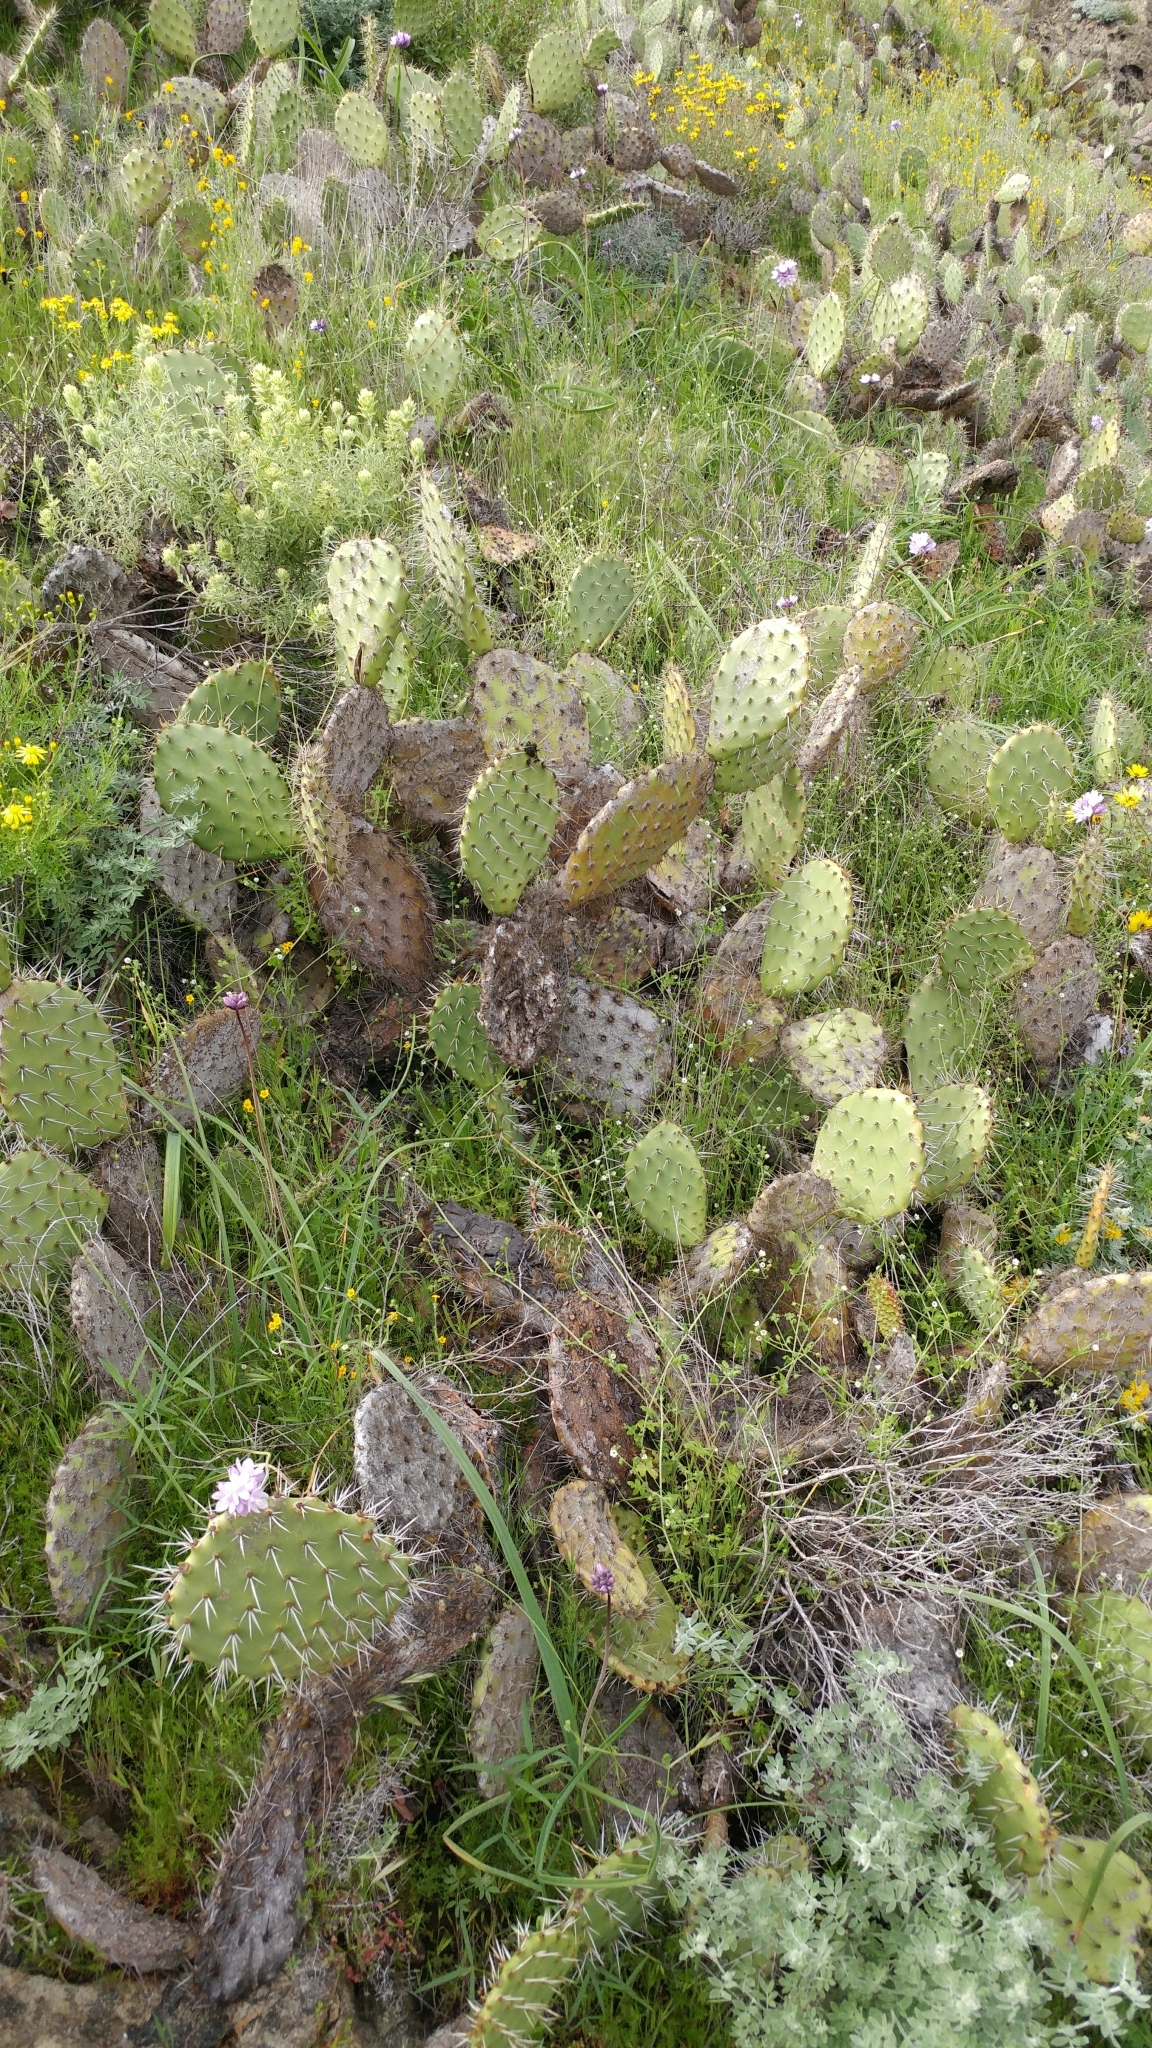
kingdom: Plantae
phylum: Tracheophyta
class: Magnoliopsida
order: Caryophyllales
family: Cactaceae
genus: Opuntia
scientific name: Opuntia littoralis
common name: Coastal prickly-pear
